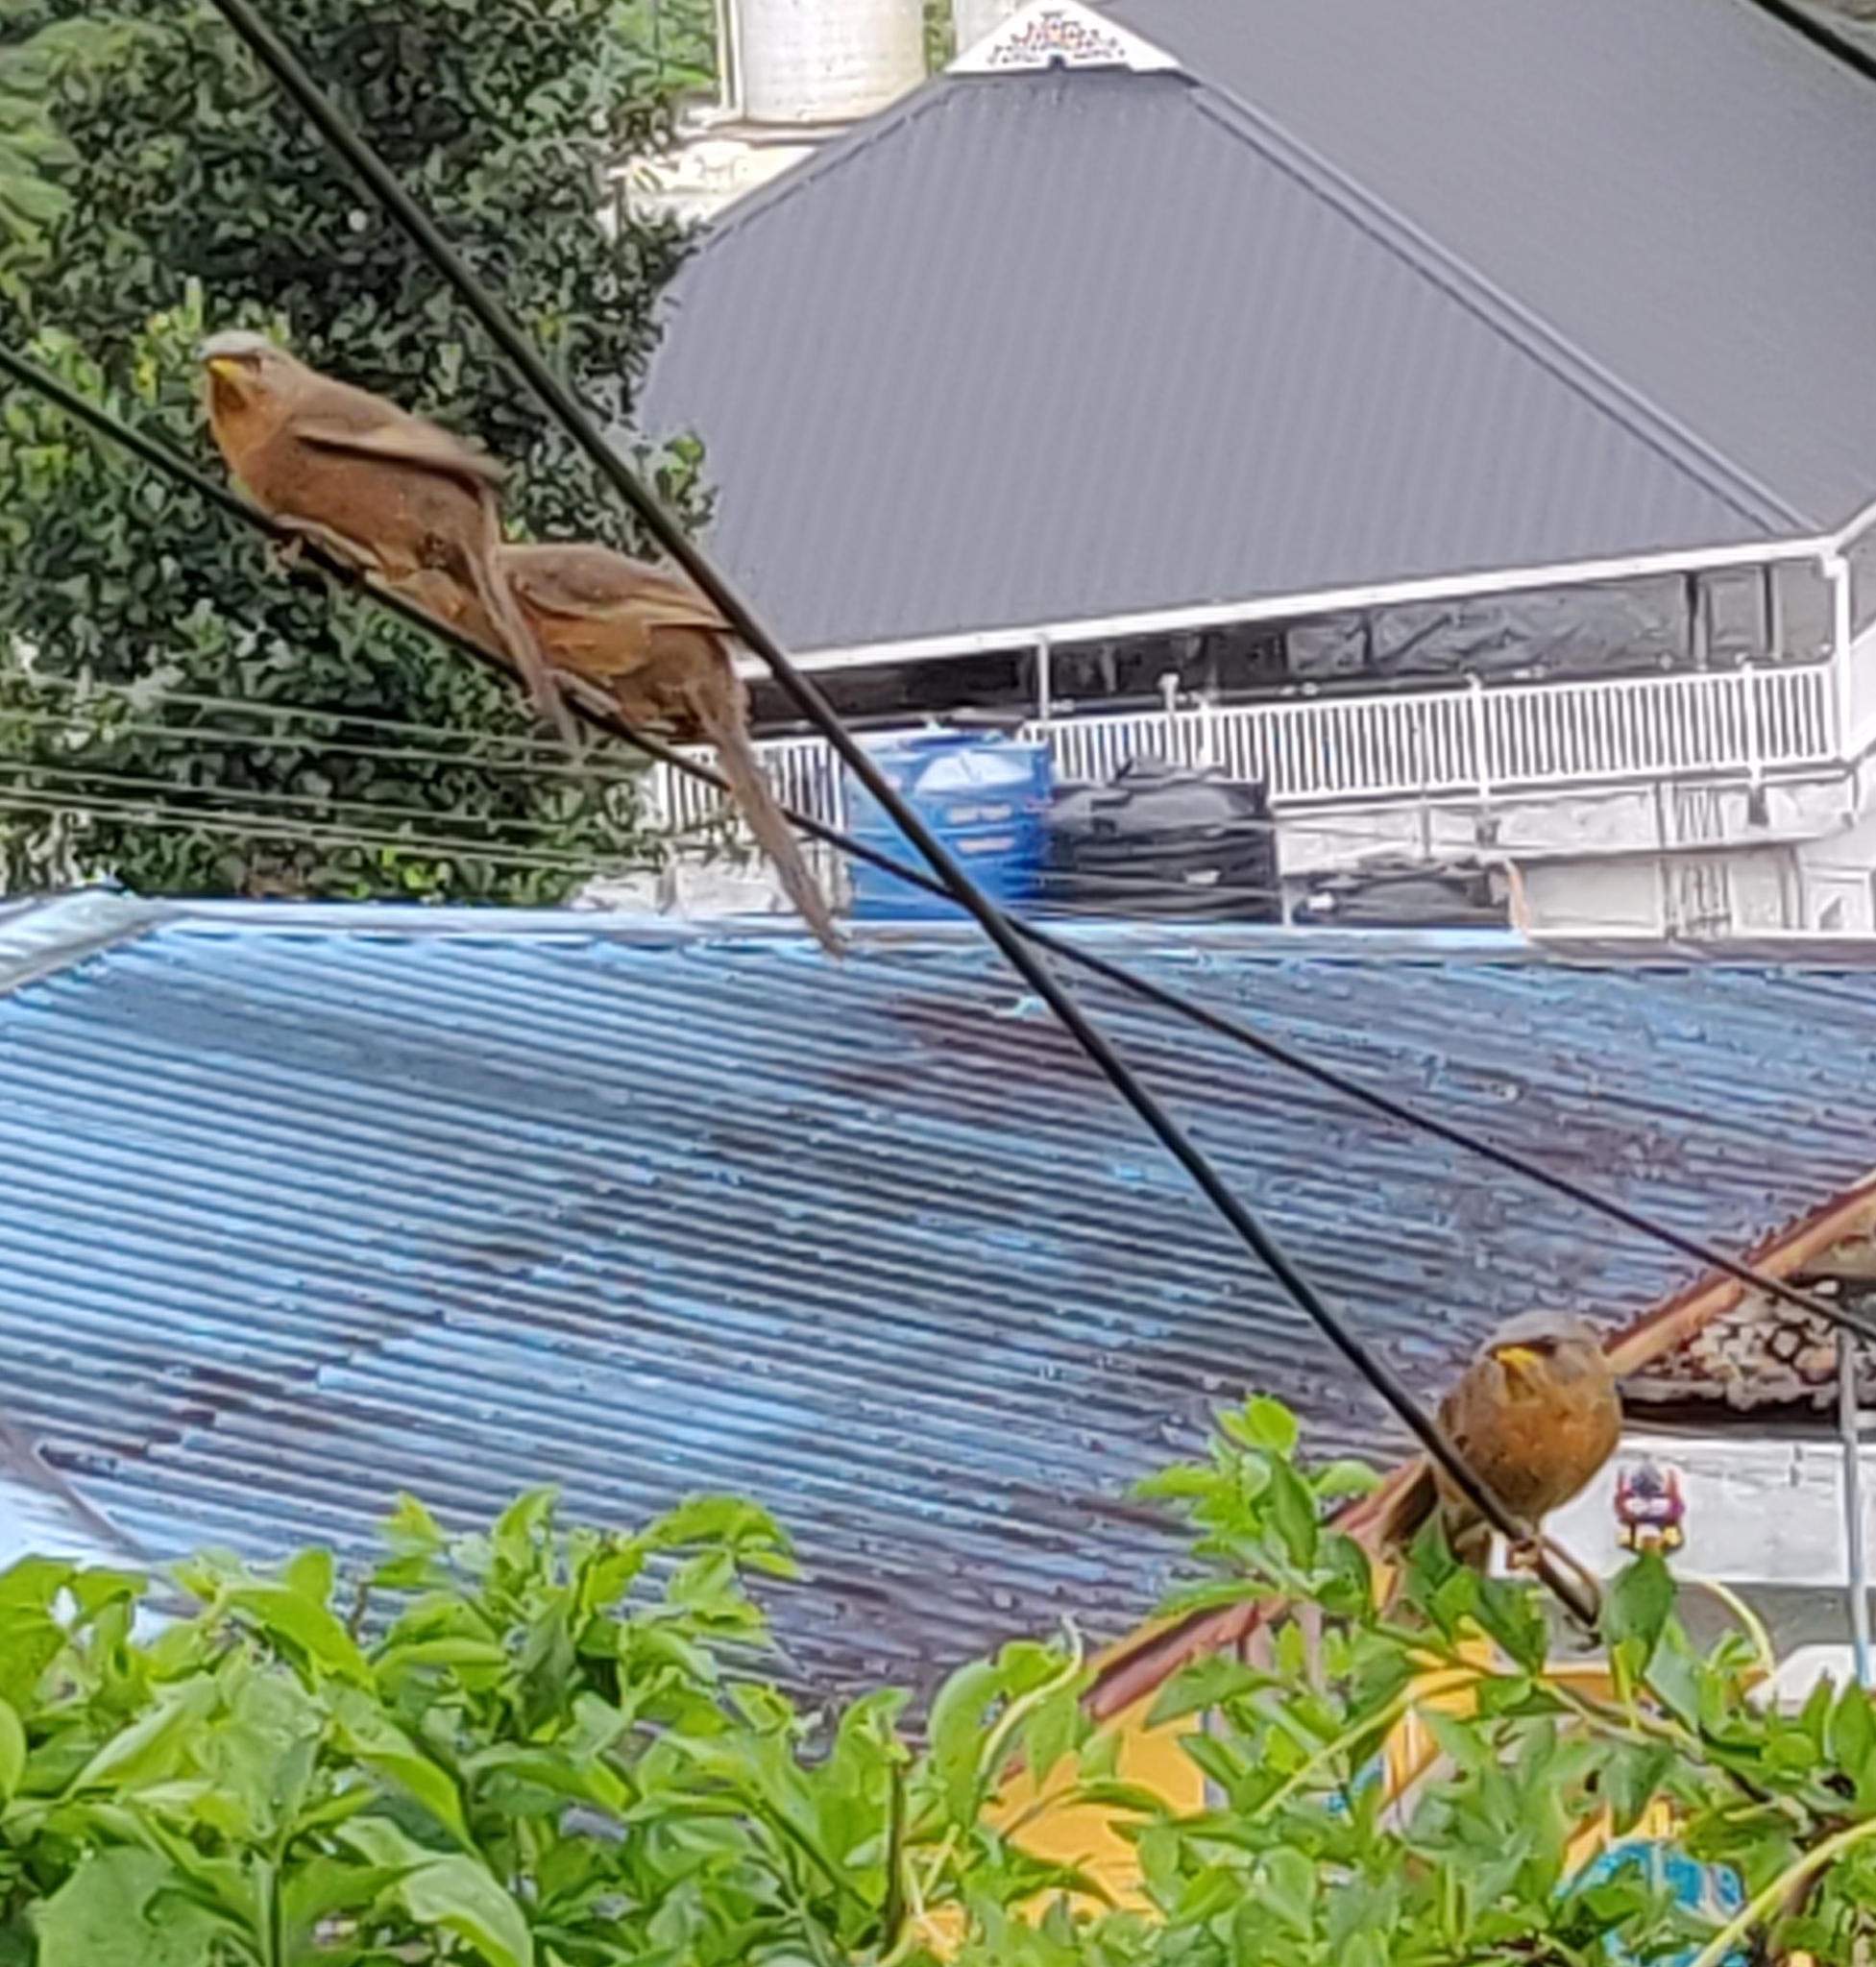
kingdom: Animalia
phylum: Chordata
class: Aves
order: Passeriformes
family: Leiothrichidae
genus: Turdoides
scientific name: Turdoides subrufa
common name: Rufous babbler
